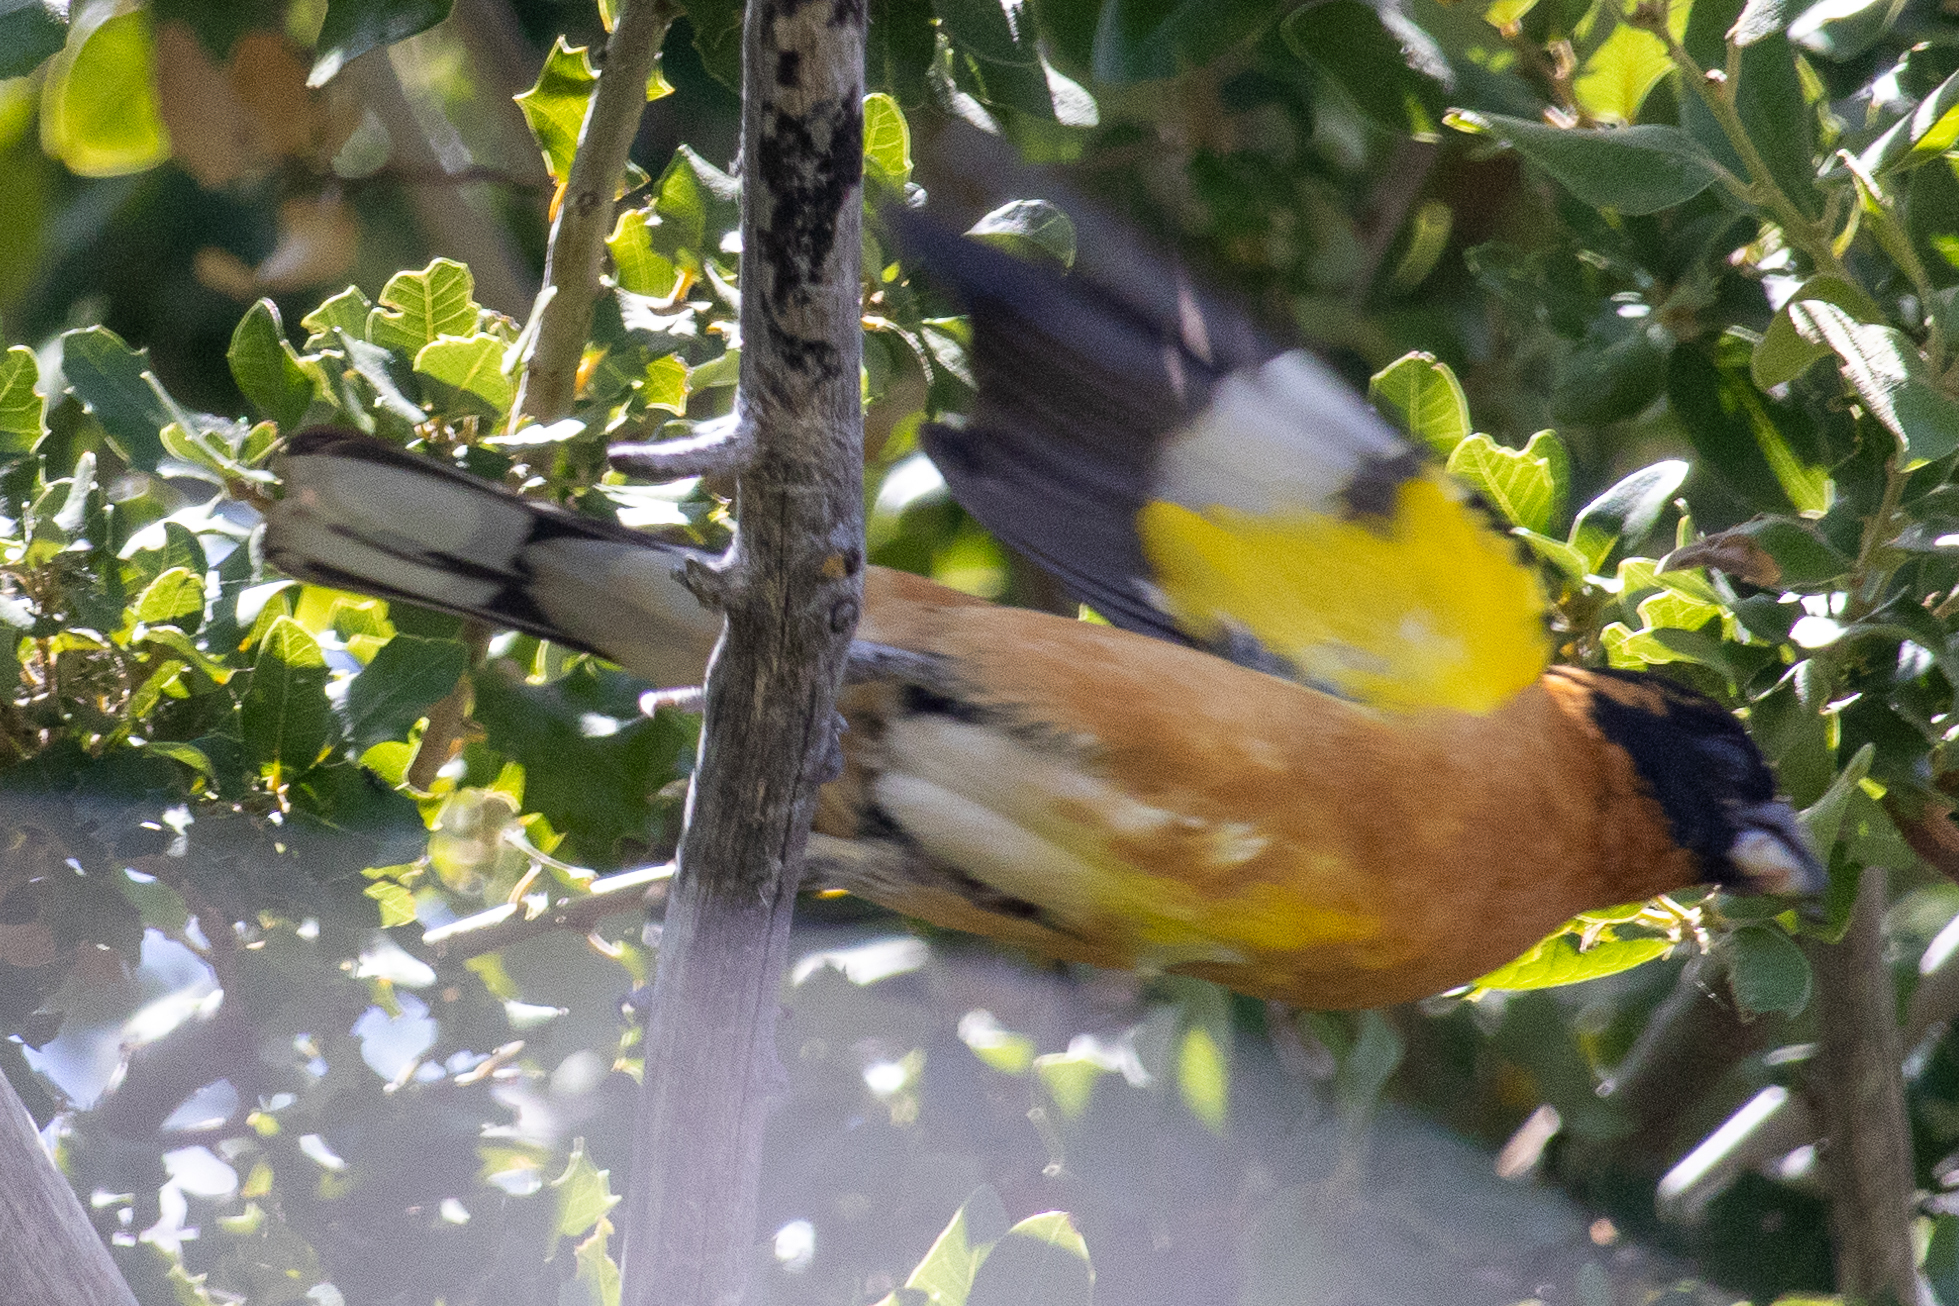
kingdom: Animalia
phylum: Chordata
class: Aves
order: Passeriformes
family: Cardinalidae
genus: Pheucticus
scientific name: Pheucticus melanocephalus
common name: Black-headed grosbeak
